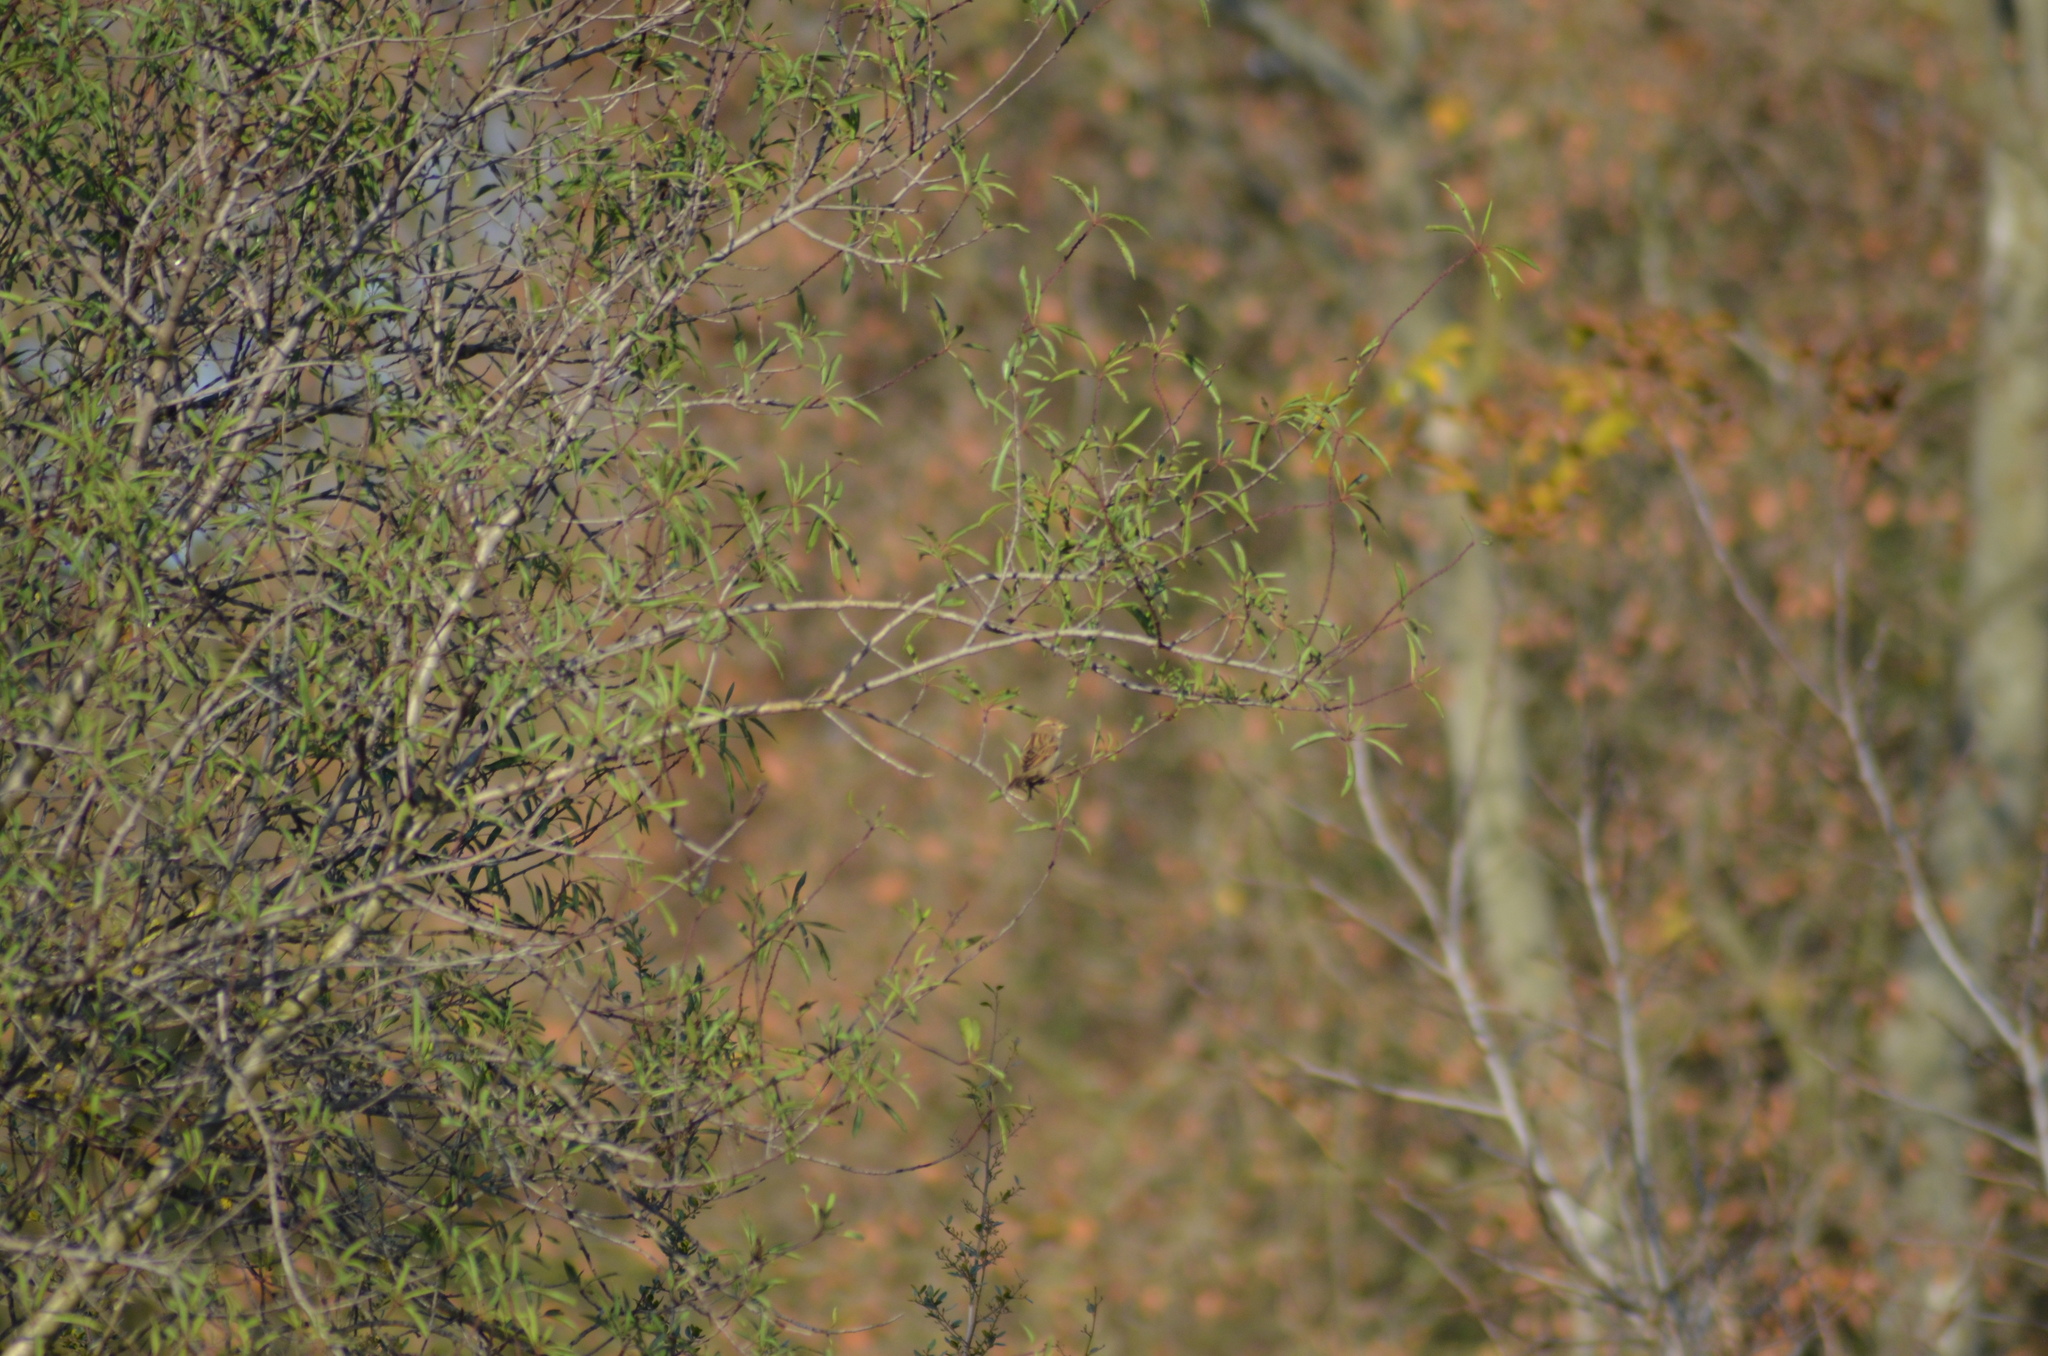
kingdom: Animalia
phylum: Chordata
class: Aves
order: Passeriformes
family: Passeridae
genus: Passer
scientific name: Passer domesticus
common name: House sparrow
